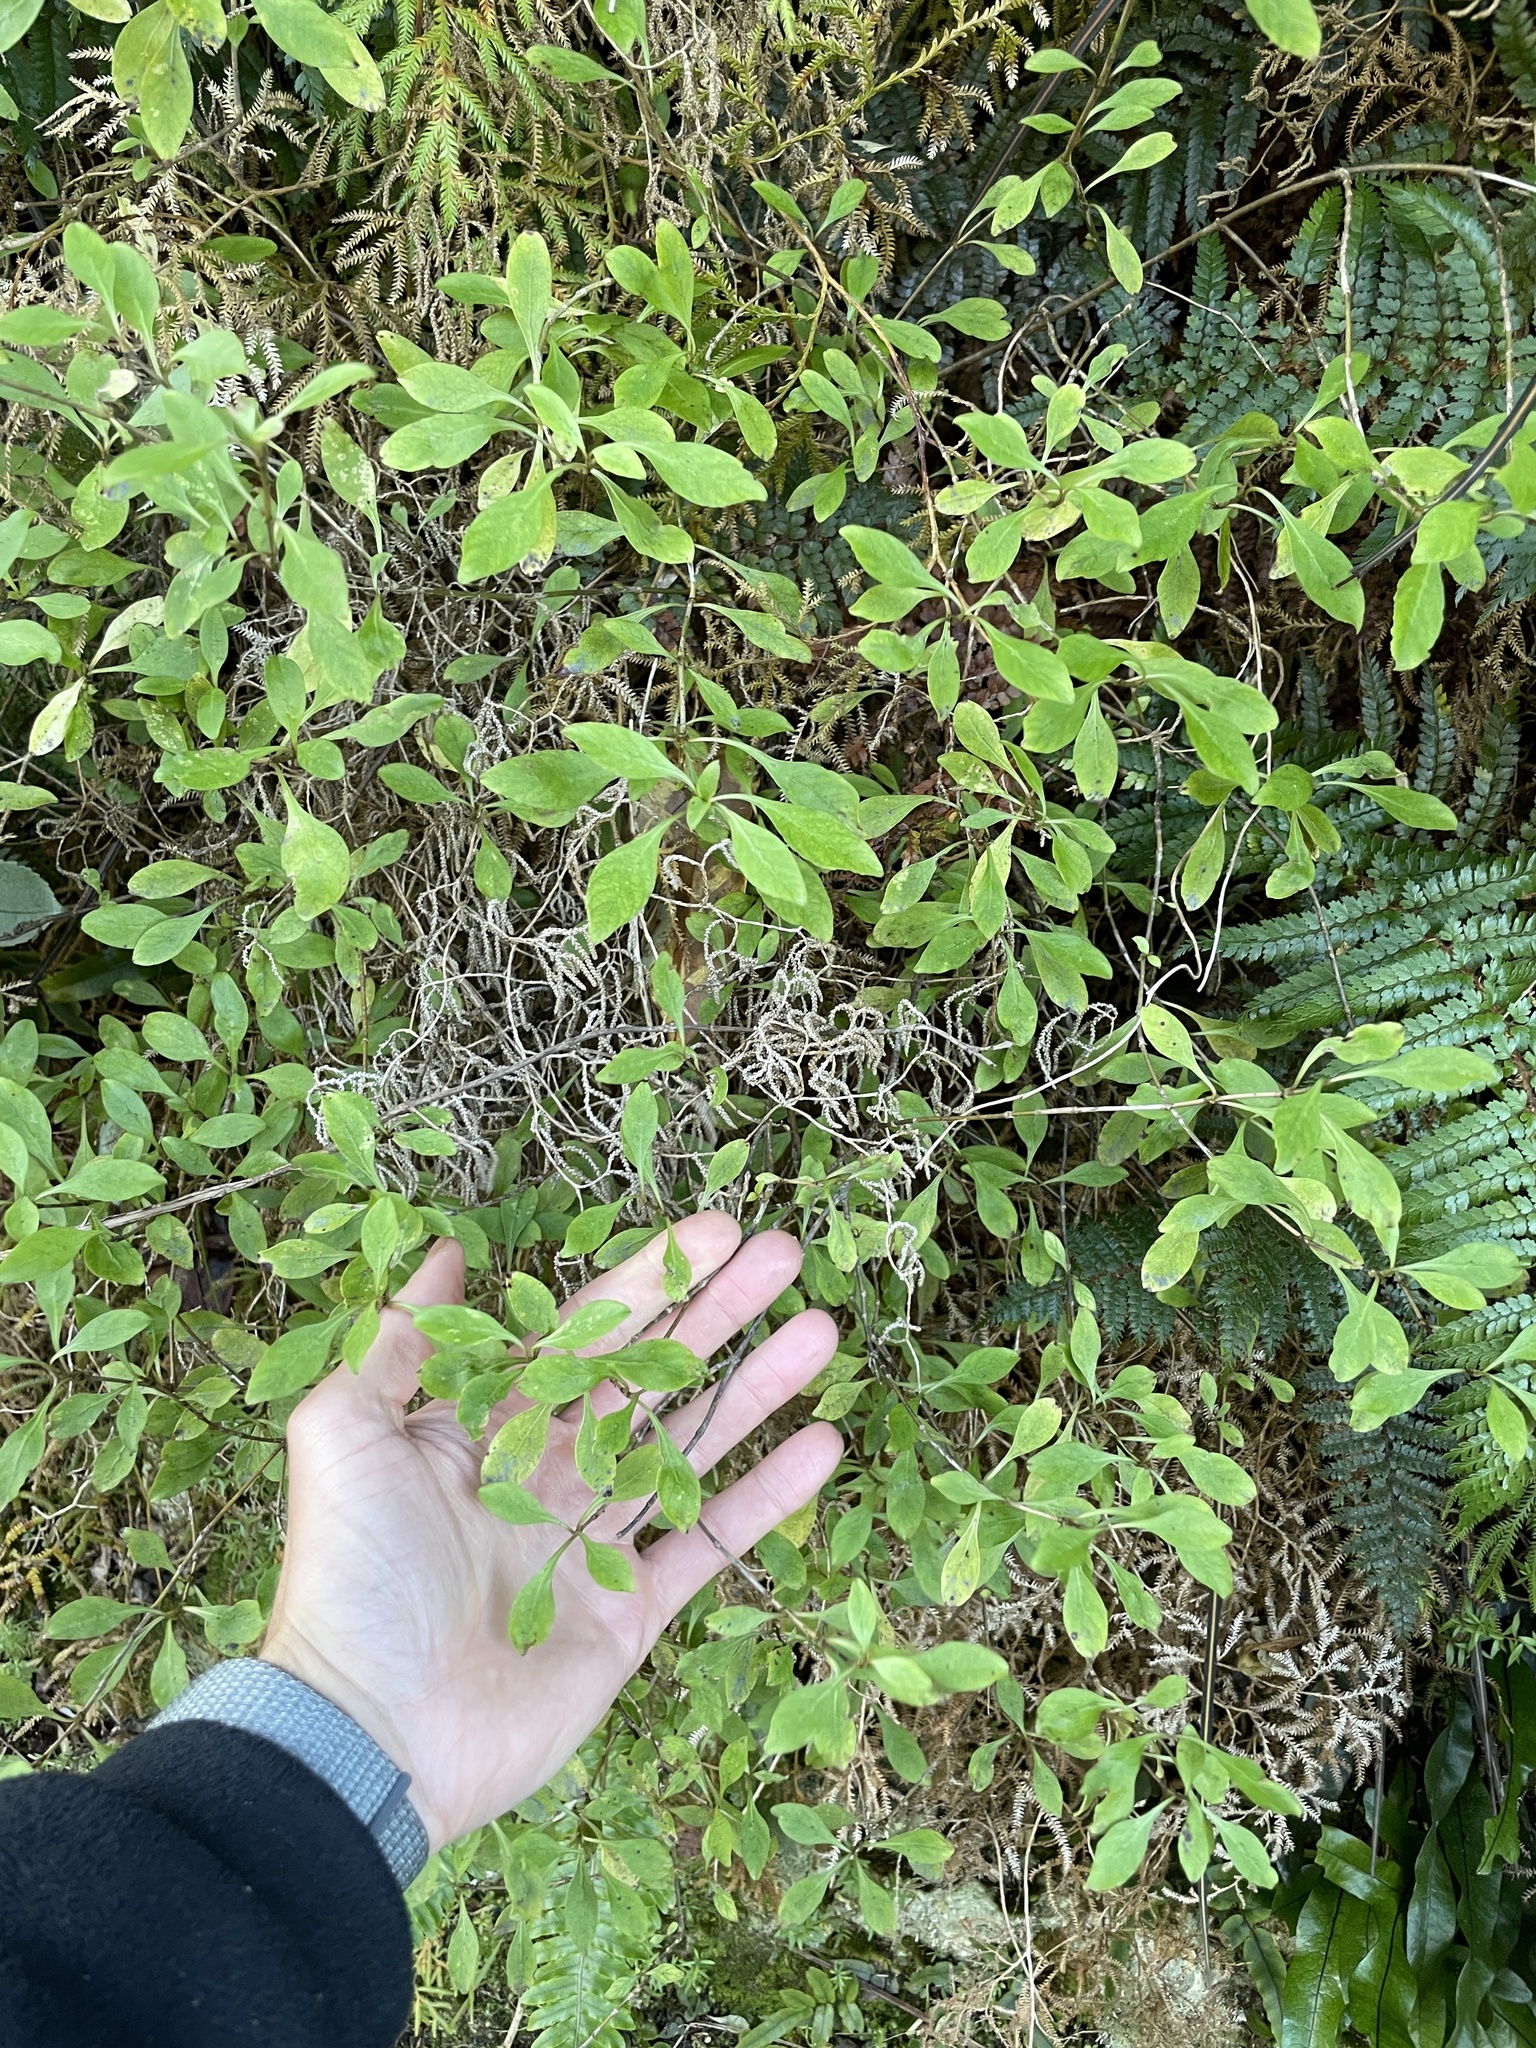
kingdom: Plantae
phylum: Tracheophyta
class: Magnoliopsida
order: Gentianales
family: Rubiaceae
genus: Coprosma
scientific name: Coprosma foetidissima
